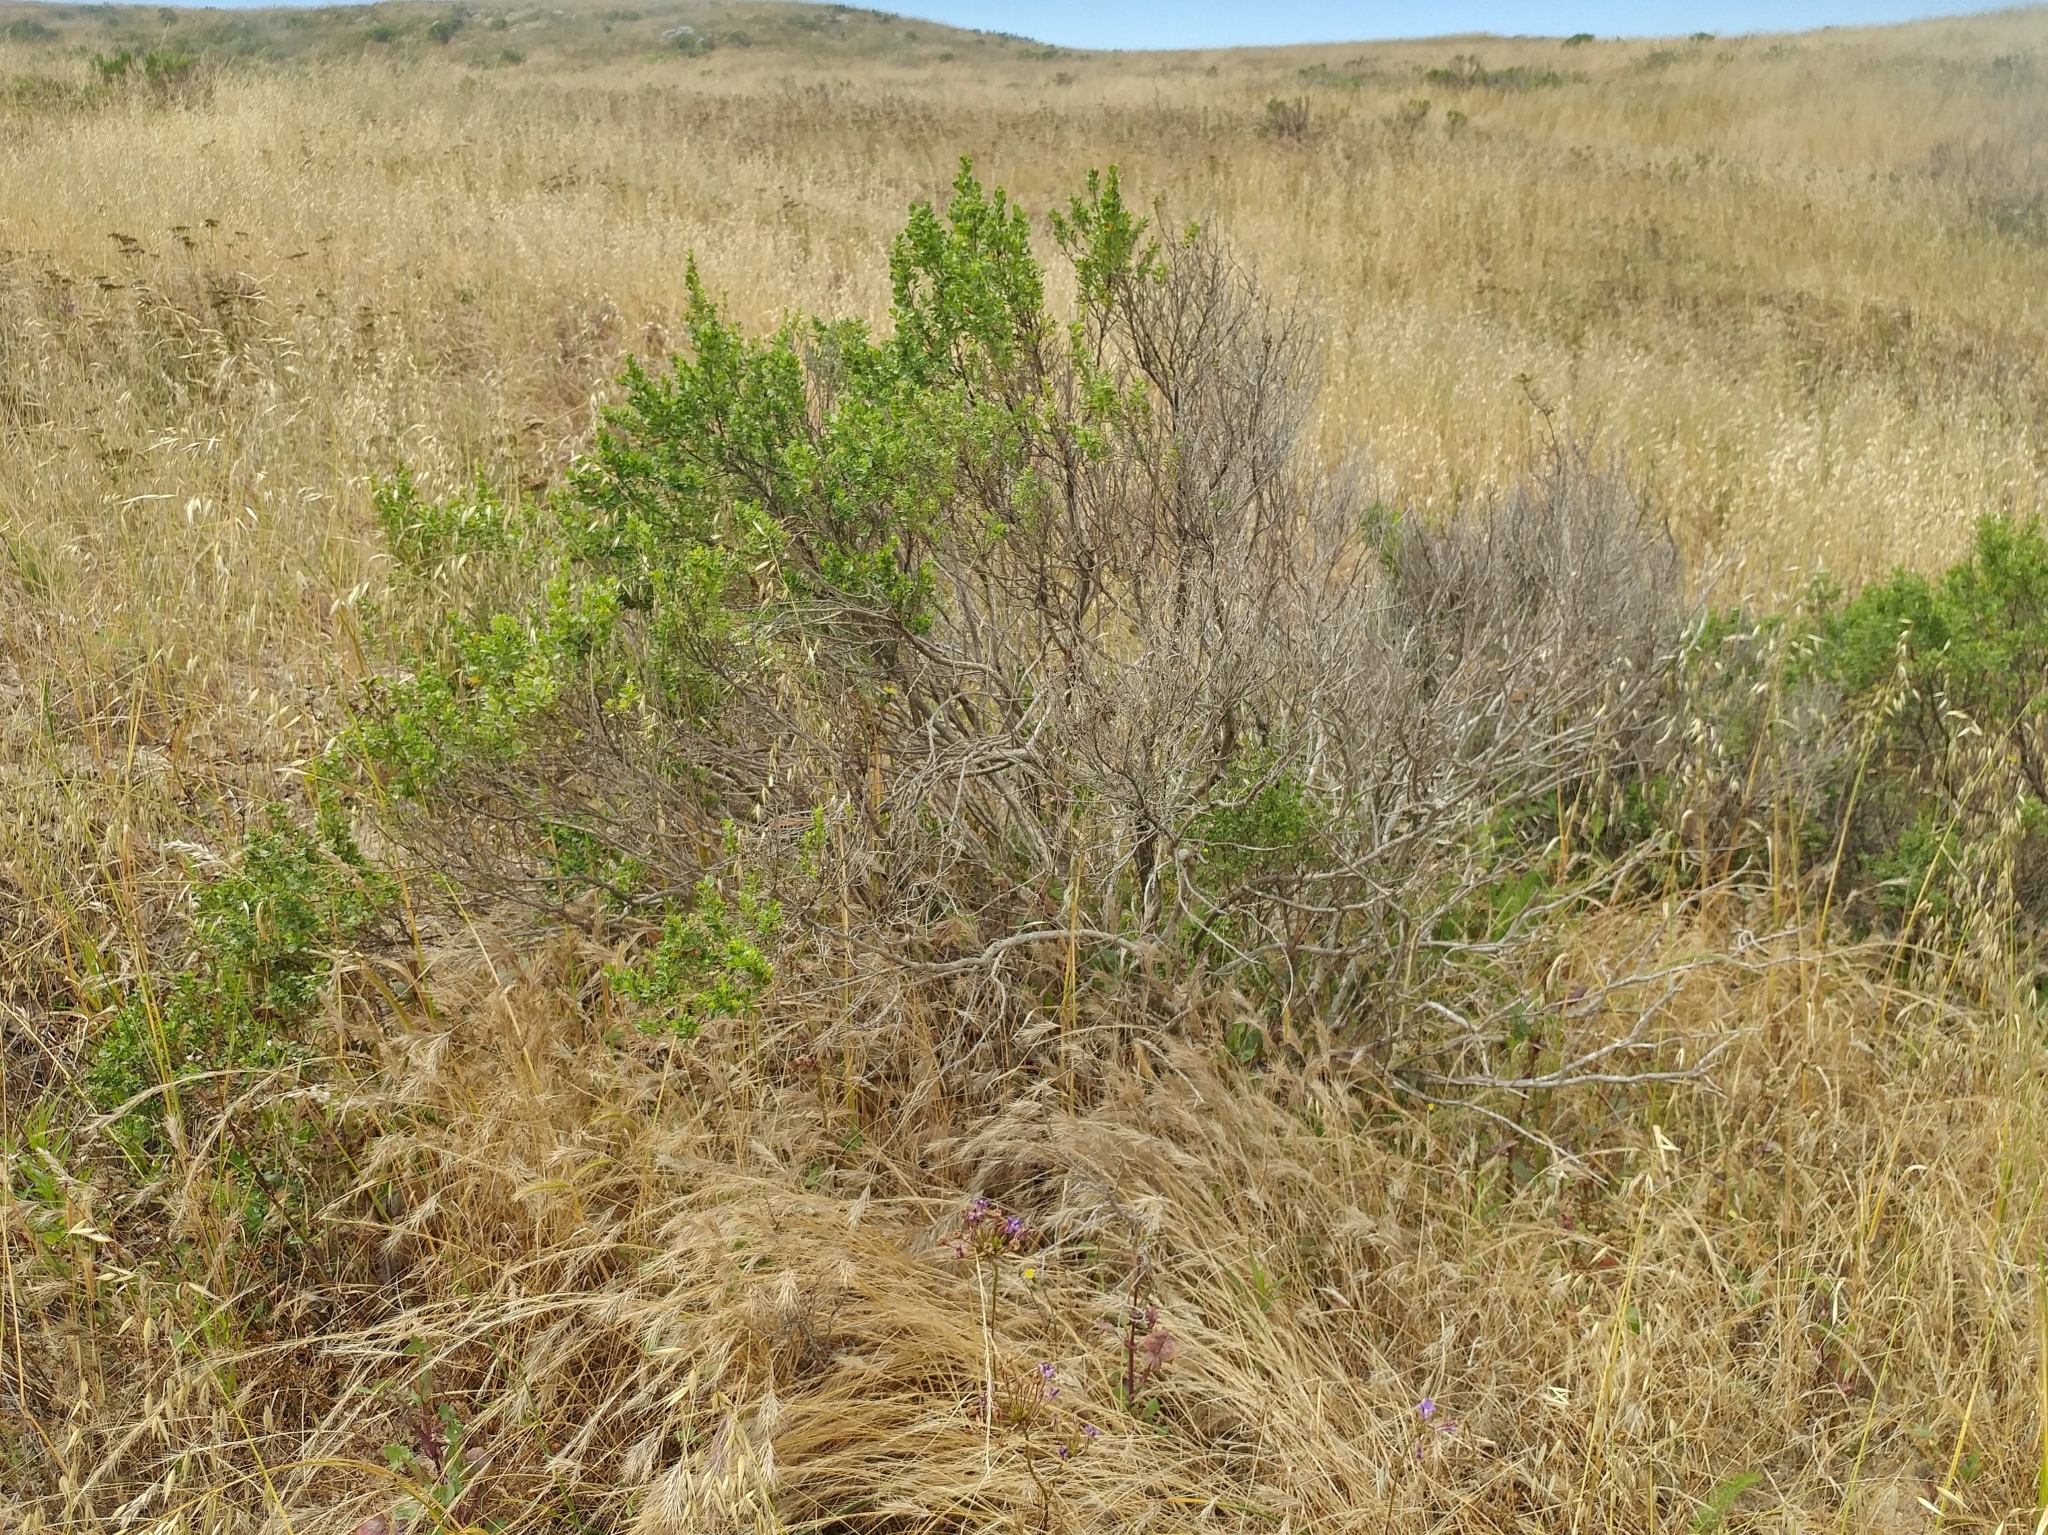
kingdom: Plantae
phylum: Tracheophyta
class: Magnoliopsida
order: Asterales
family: Asteraceae
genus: Baccharis
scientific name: Baccharis pilularis
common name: Coyotebrush
